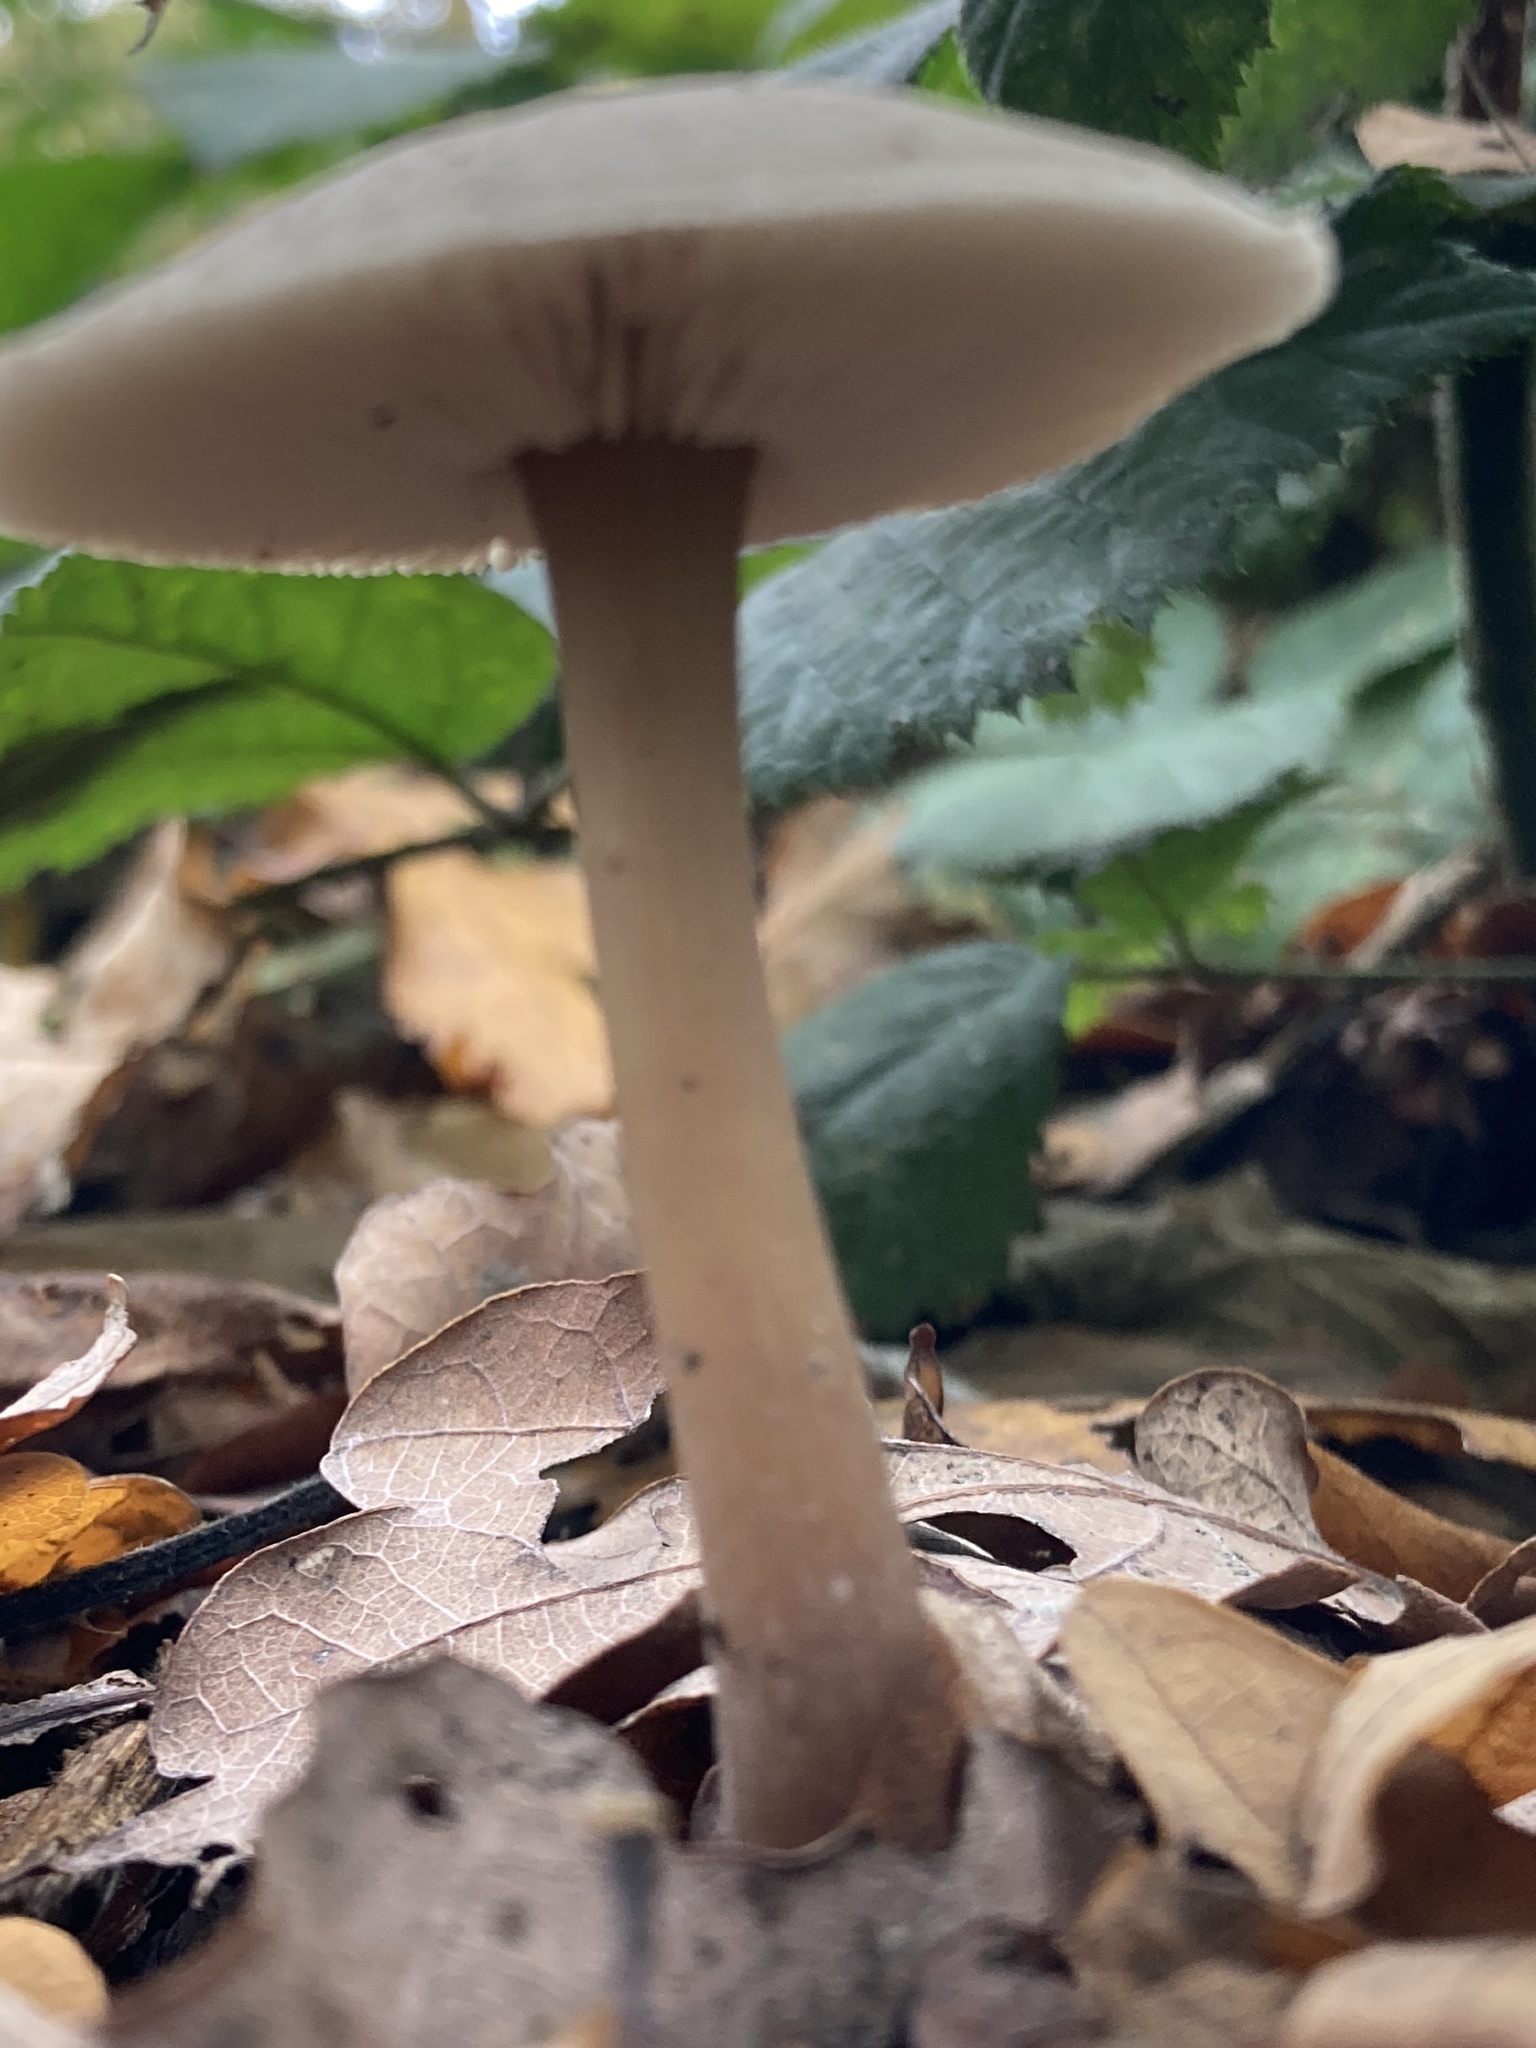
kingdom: Fungi
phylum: Basidiomycota
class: Agaricomycetes
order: Agaricales
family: Omphalotaceae
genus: Rhodocollybia
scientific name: Rhodocollybia butyracea
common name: Butter cap
